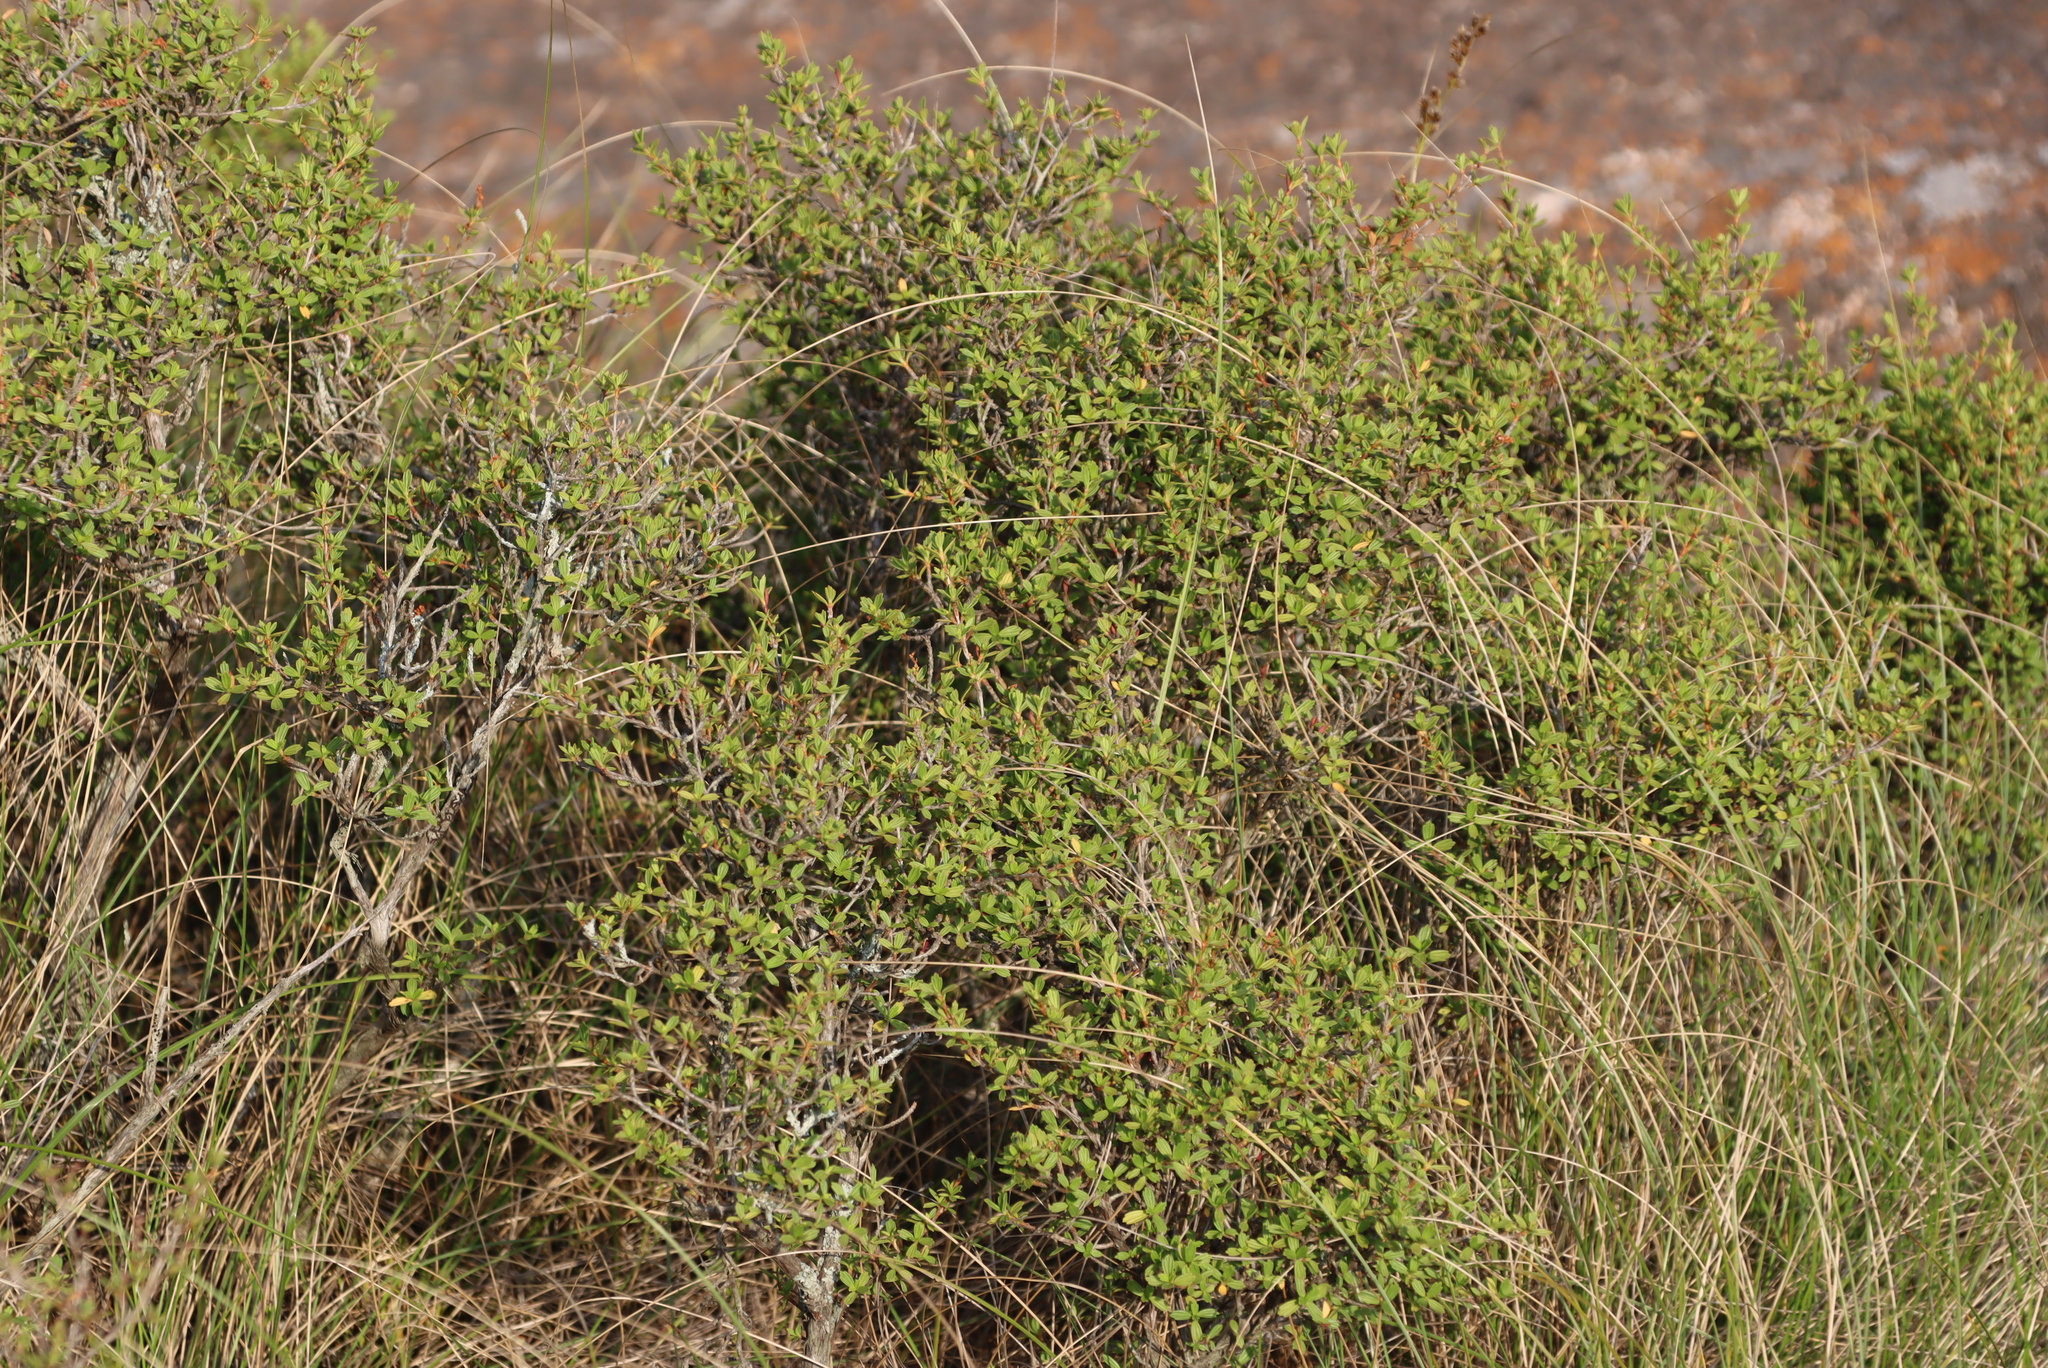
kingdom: Plantae
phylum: Tracheophyta
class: Magnoliopsida
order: Gunnerales
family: Myrothamnaceae
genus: Myrothamnus
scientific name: Myrothamnus flabellifolius
